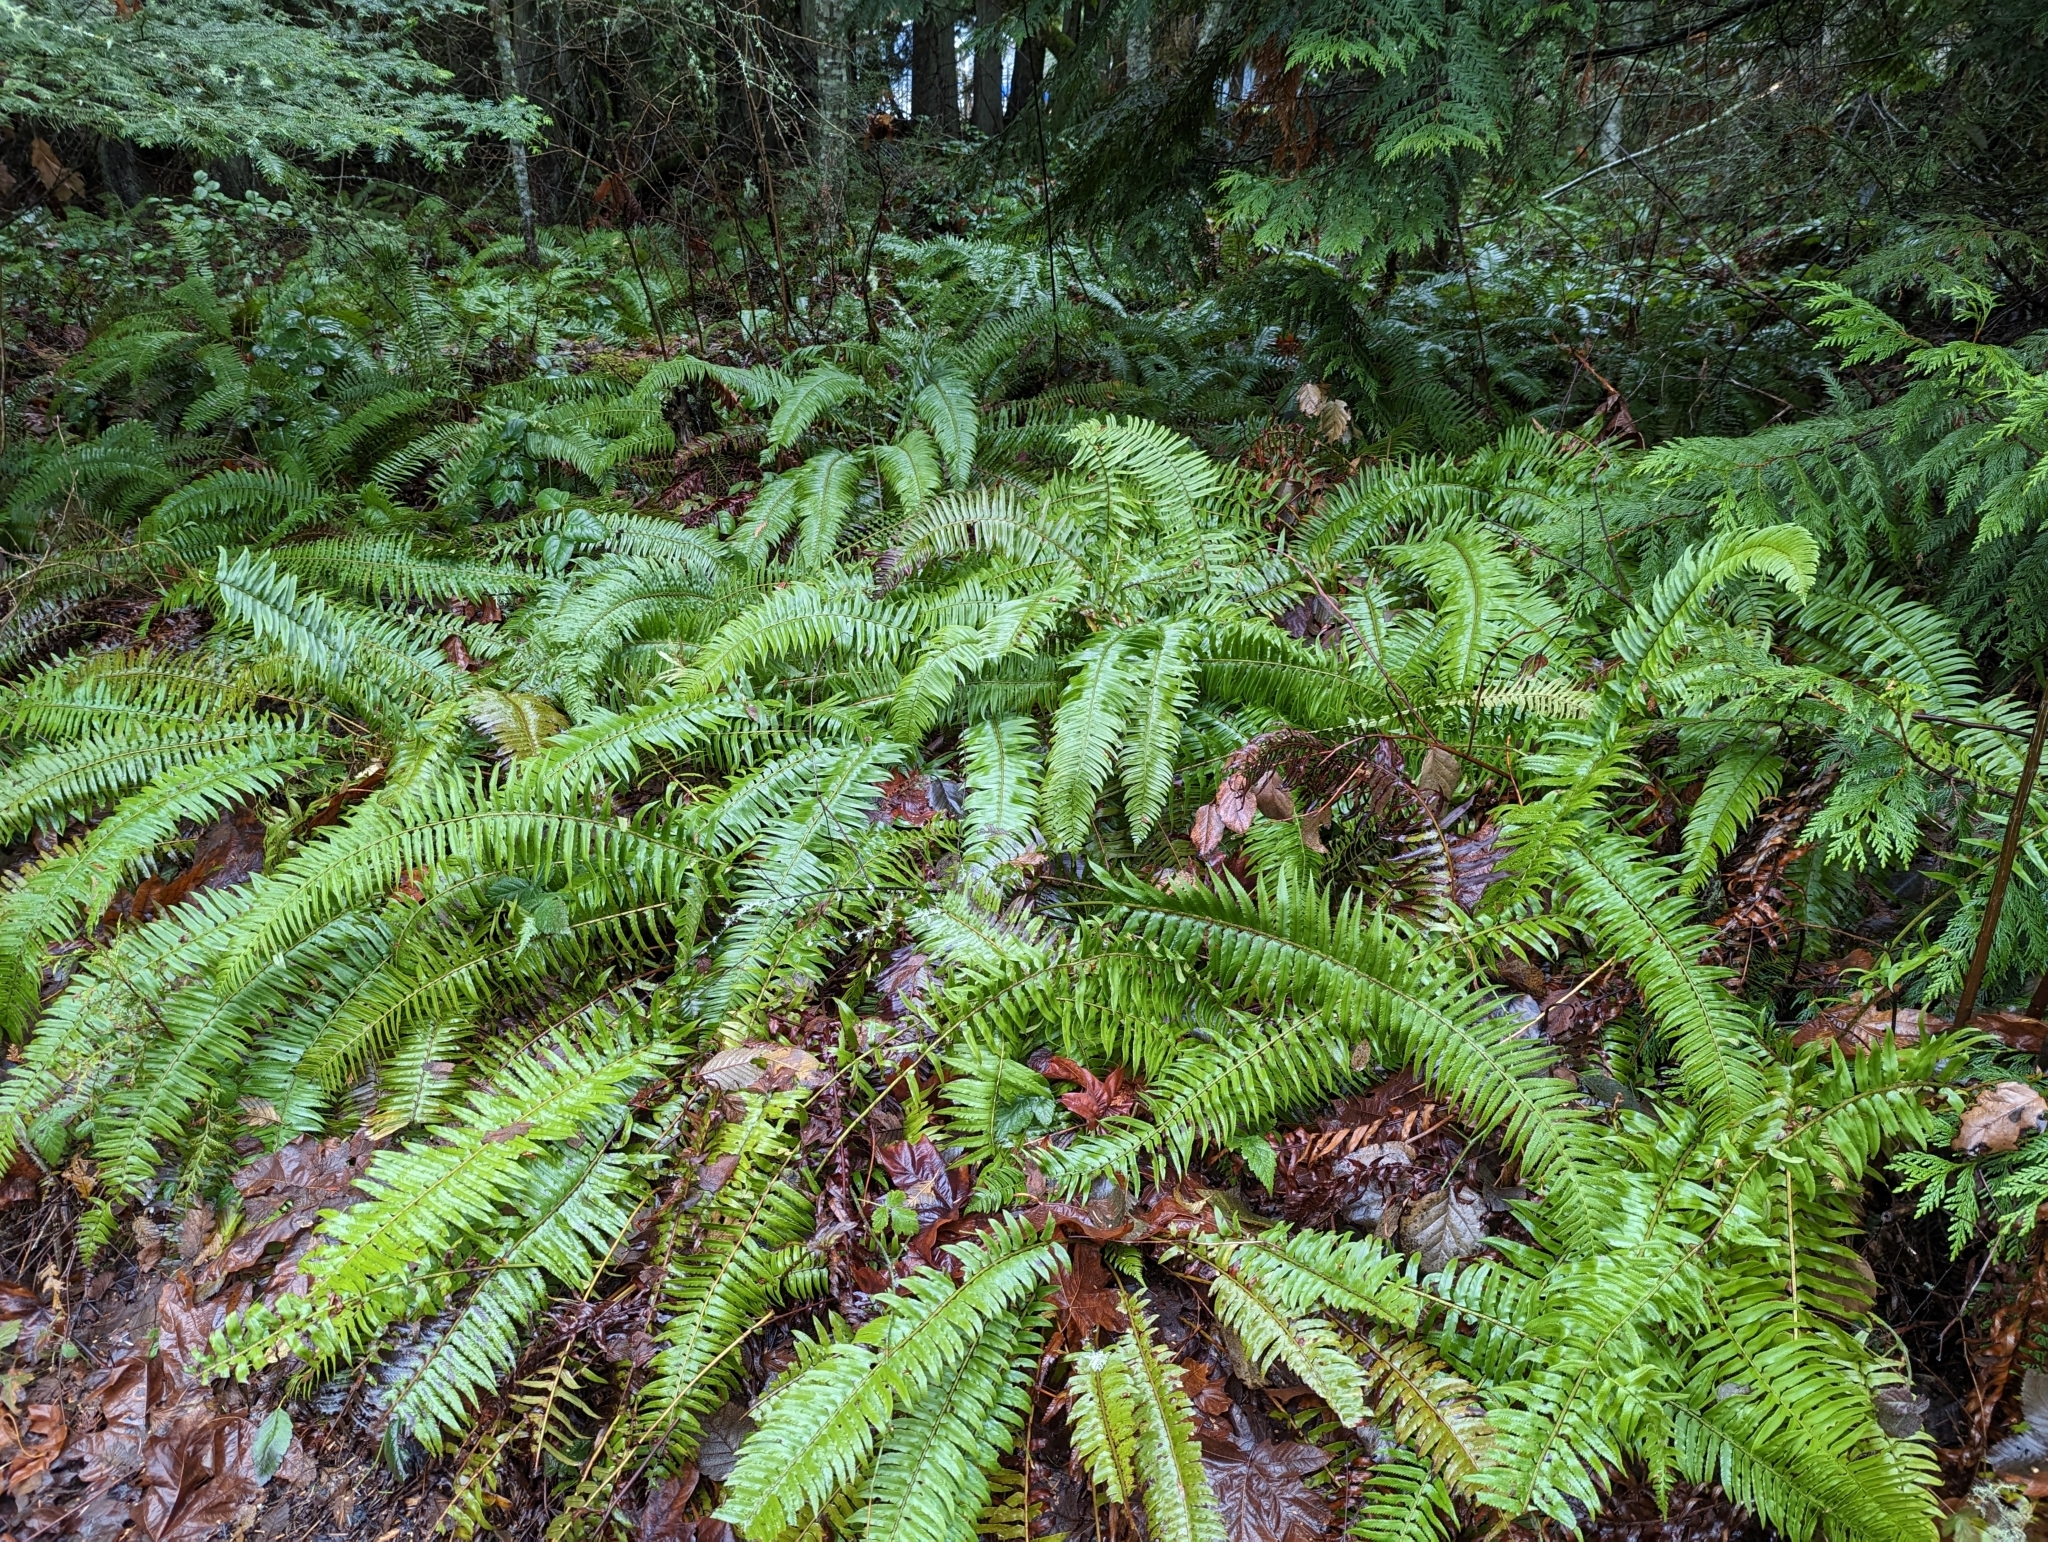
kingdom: Plantae
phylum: Tracheophyta
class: Polypodiopsida
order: Polypodiales
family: Dryopteridaceae
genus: Polystichum
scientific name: Polystichum munitum
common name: Western sword-fern
